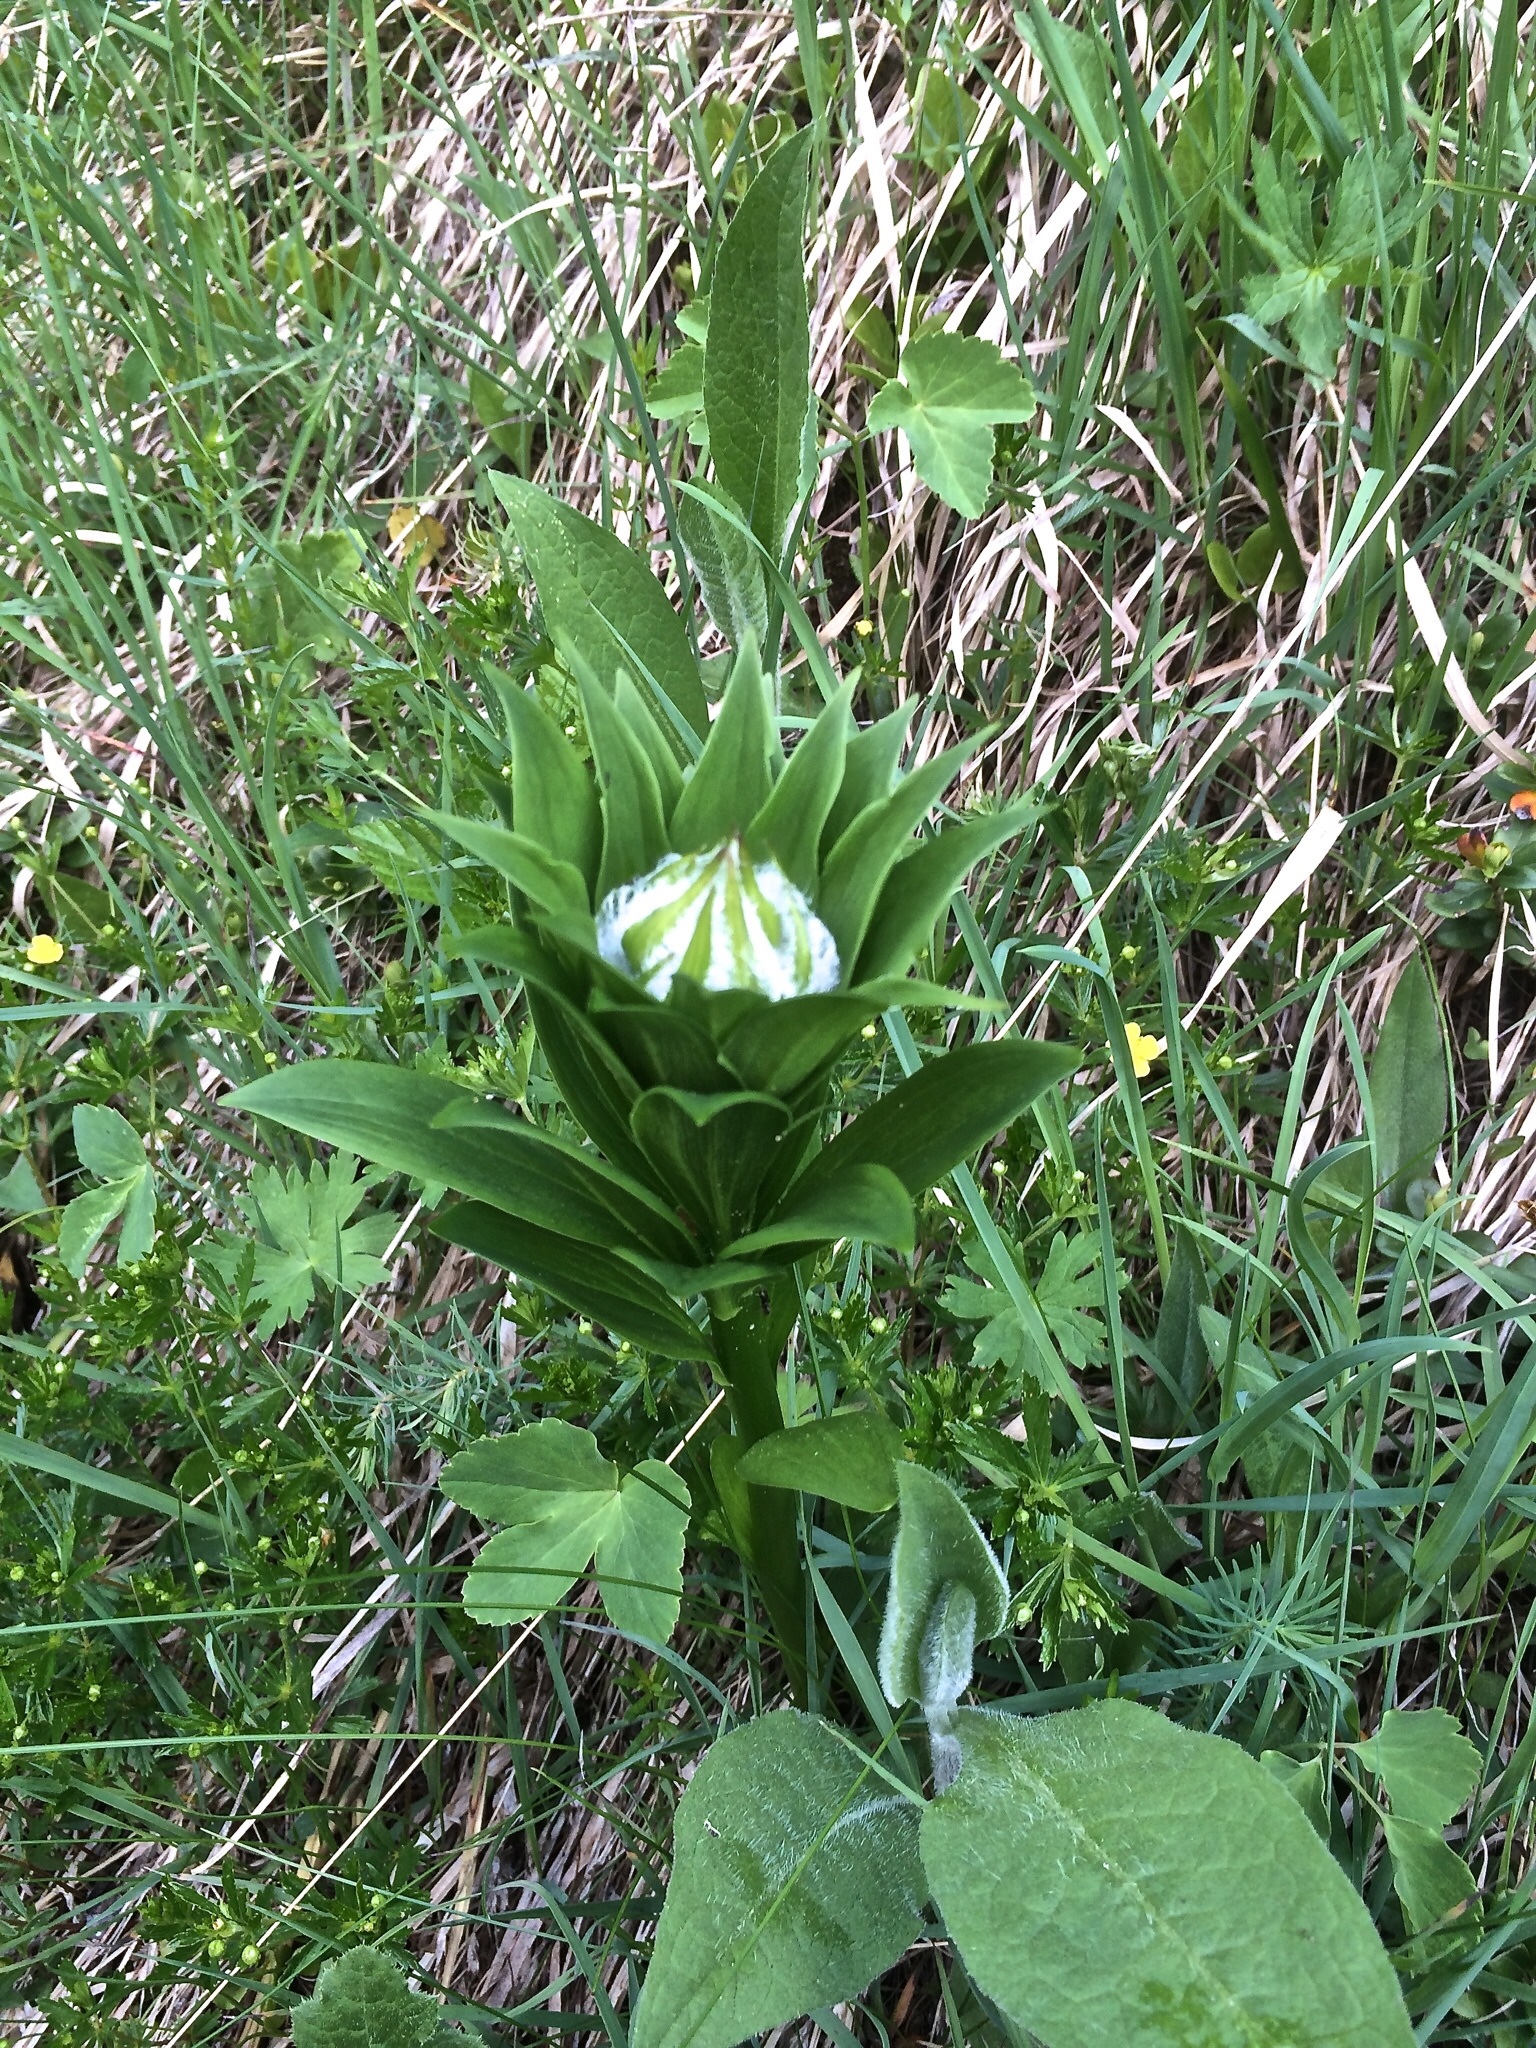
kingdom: Plantae
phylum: Tracheophyta
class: Liliopsida
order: Liliales
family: Liliaceae
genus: Lilium
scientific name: Lilium martagon
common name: Martagon lily
